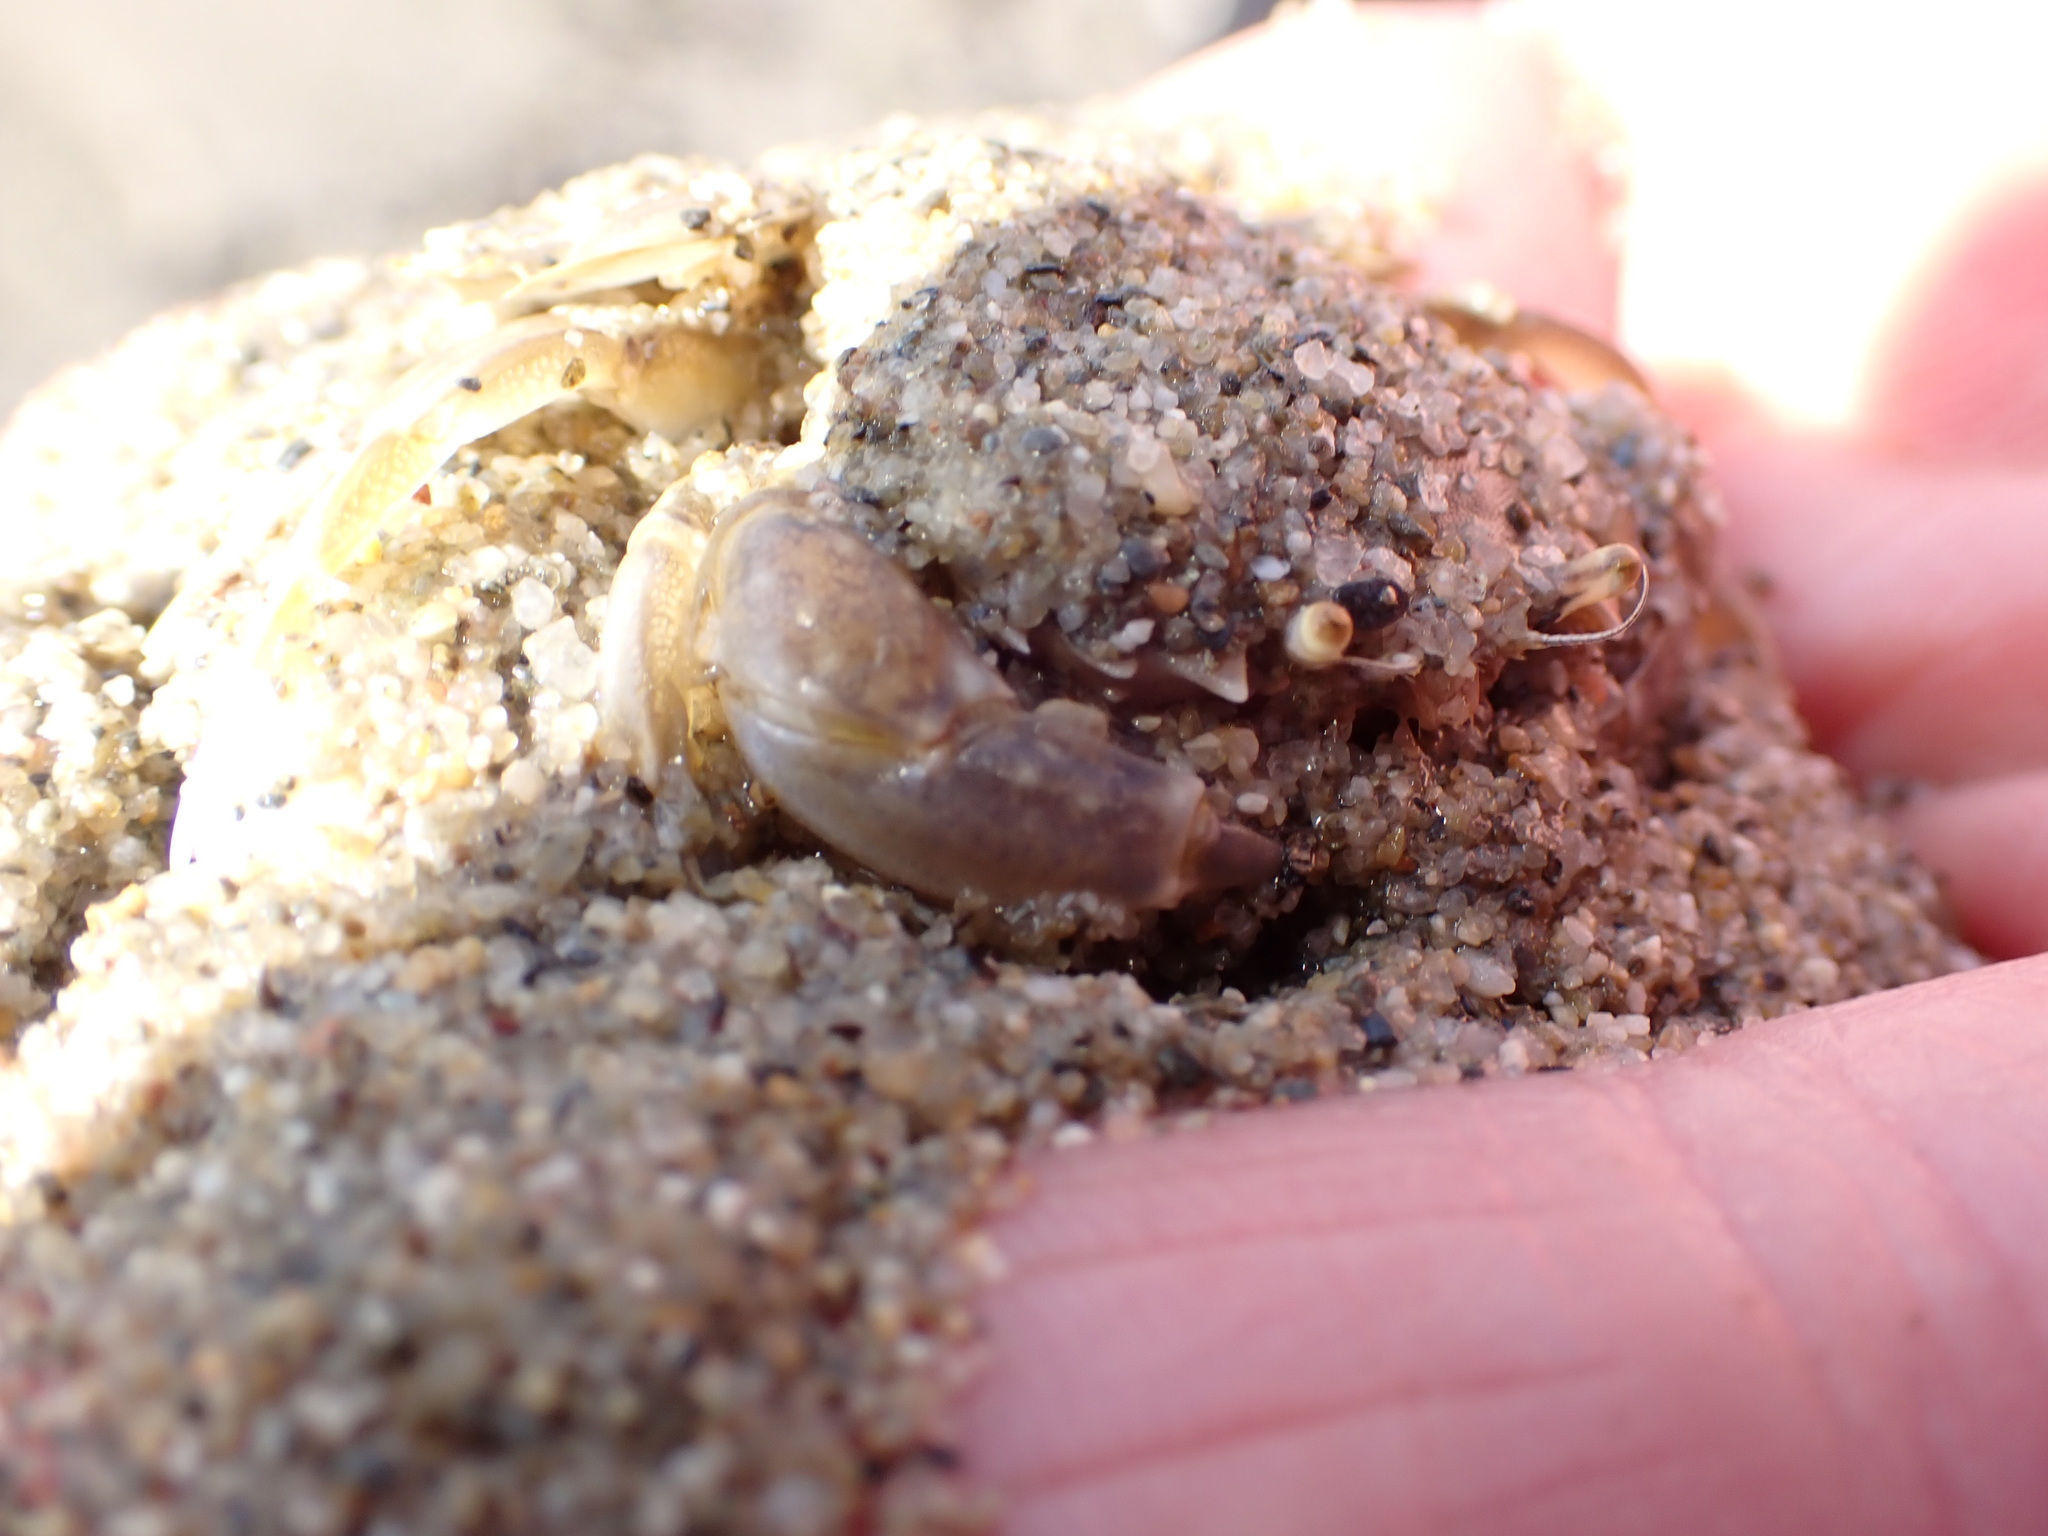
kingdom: Animalia
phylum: Arthropoda
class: Malacostraca
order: Decapoda
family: Carcinidae
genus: Portumnus
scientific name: Portumnus latipes
